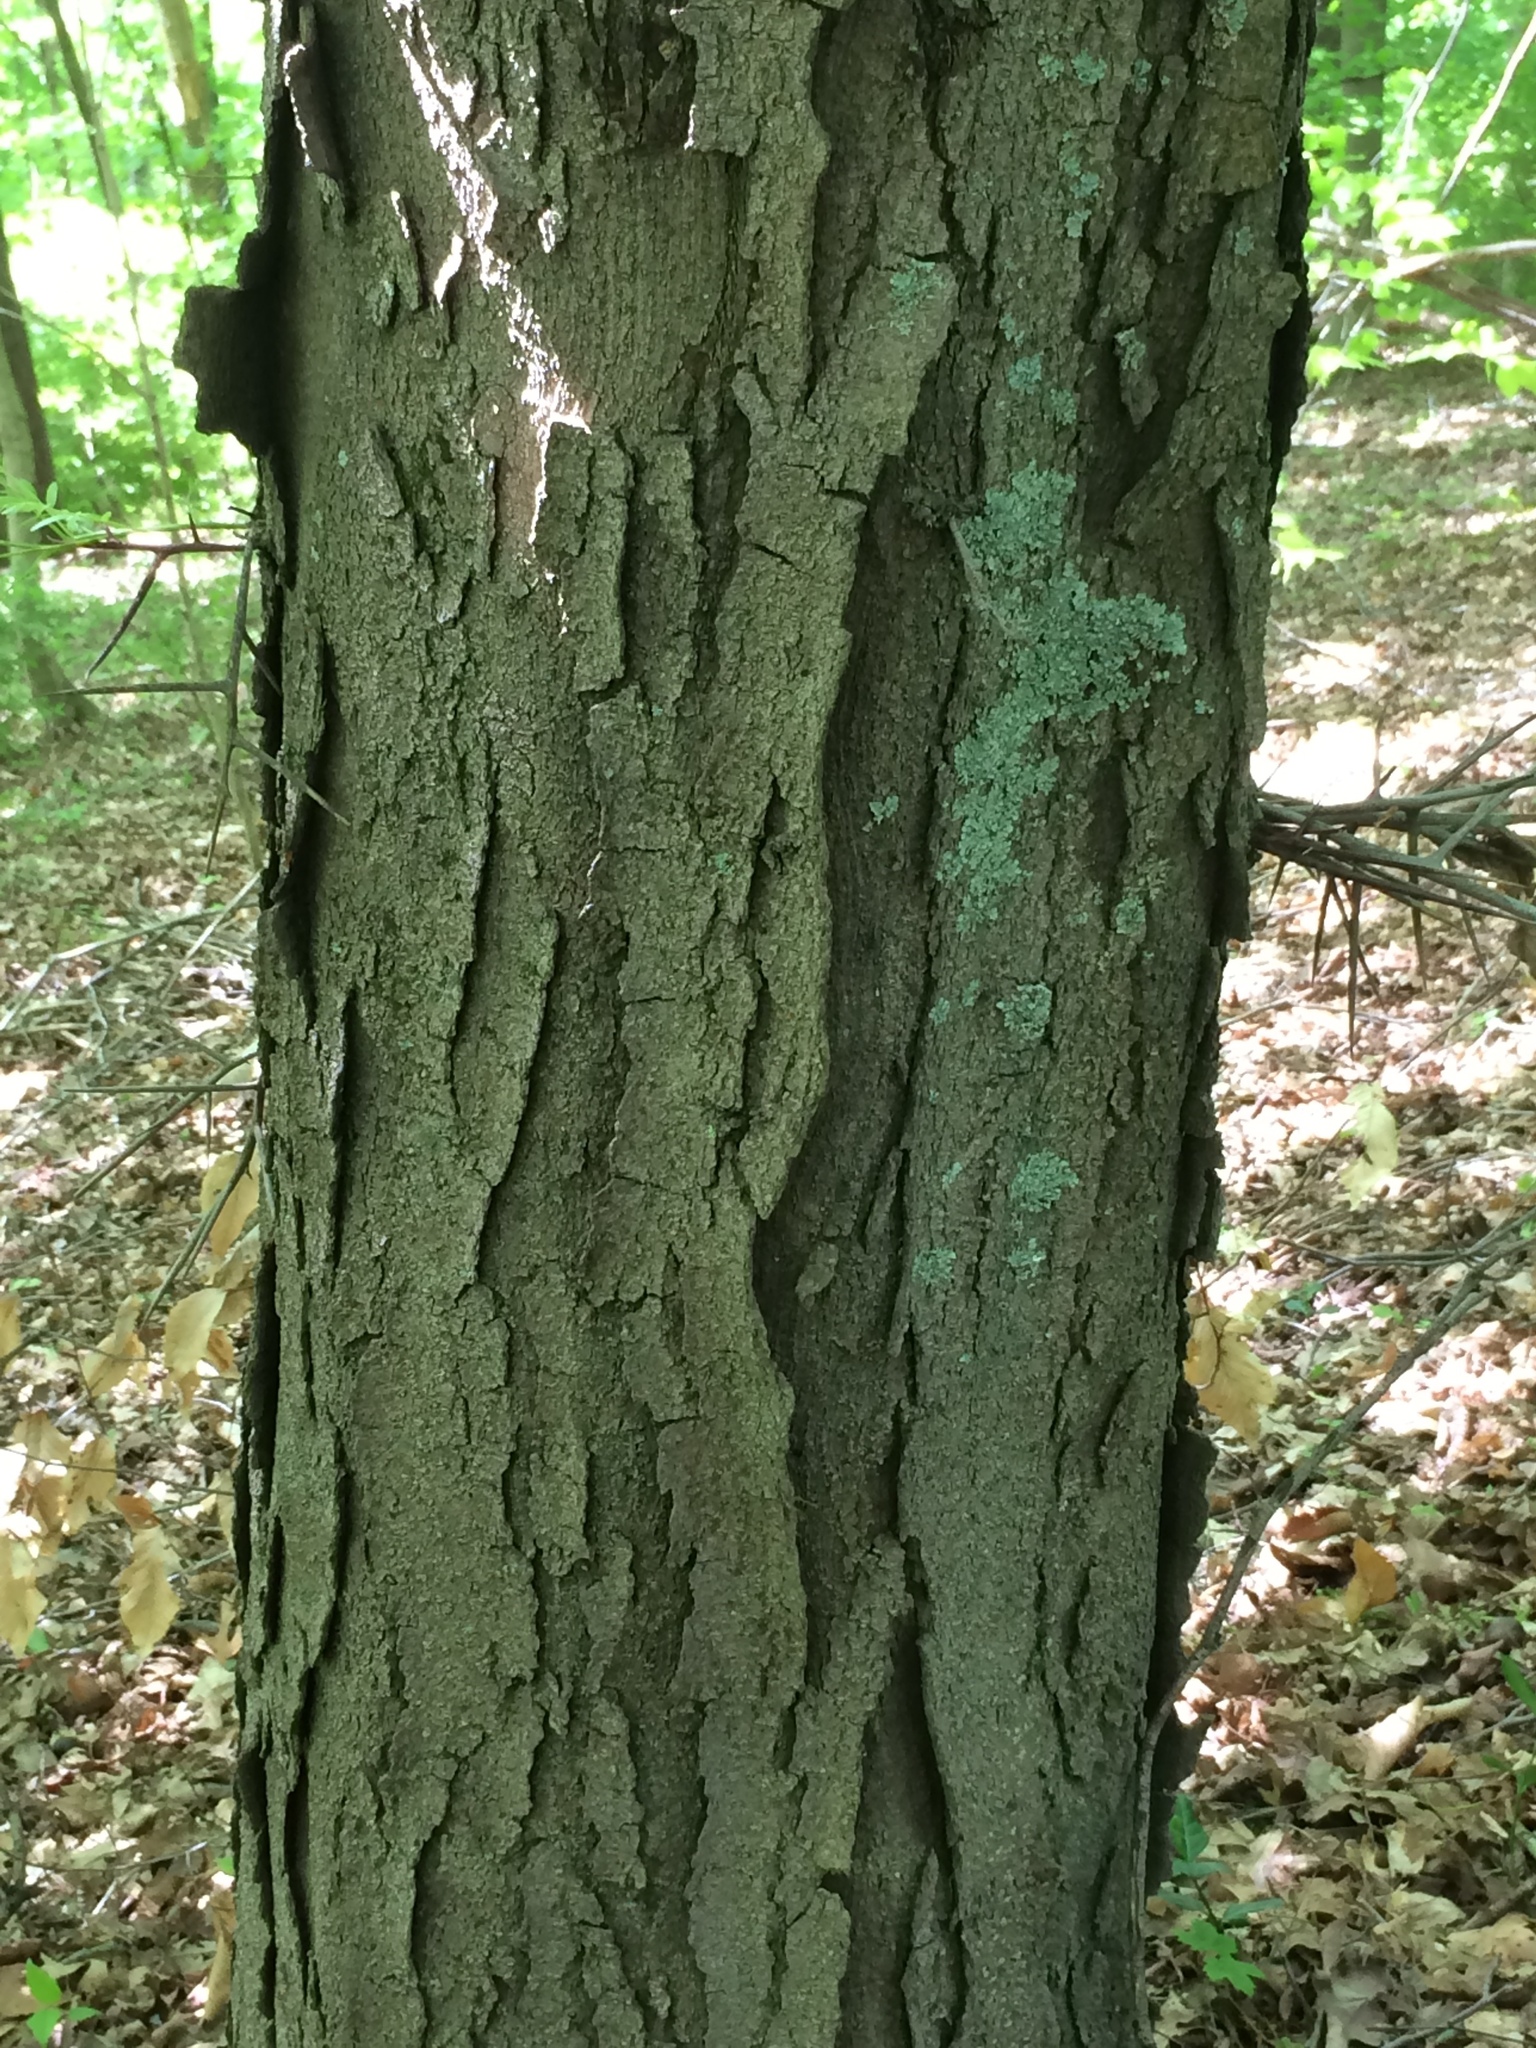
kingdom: Plantae
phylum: Tracheophyta
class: Magnoliopsida
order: Fabales
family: Fabaceae
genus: Gleditsia
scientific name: Gleditsia triacanthos
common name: Common honeylocust
